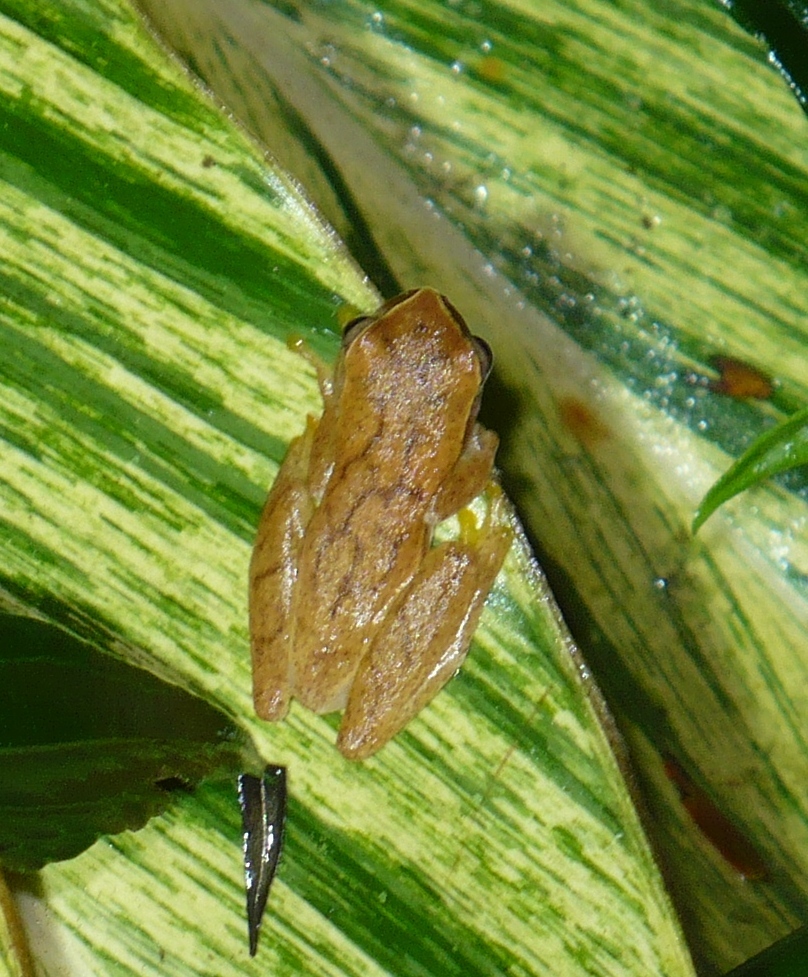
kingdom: Animalia
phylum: Chordata
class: Amphibia
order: Anura
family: Hylidae
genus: Dendropsophus
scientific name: Dendropsophus microcephalus
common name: Small-headed treefrog
